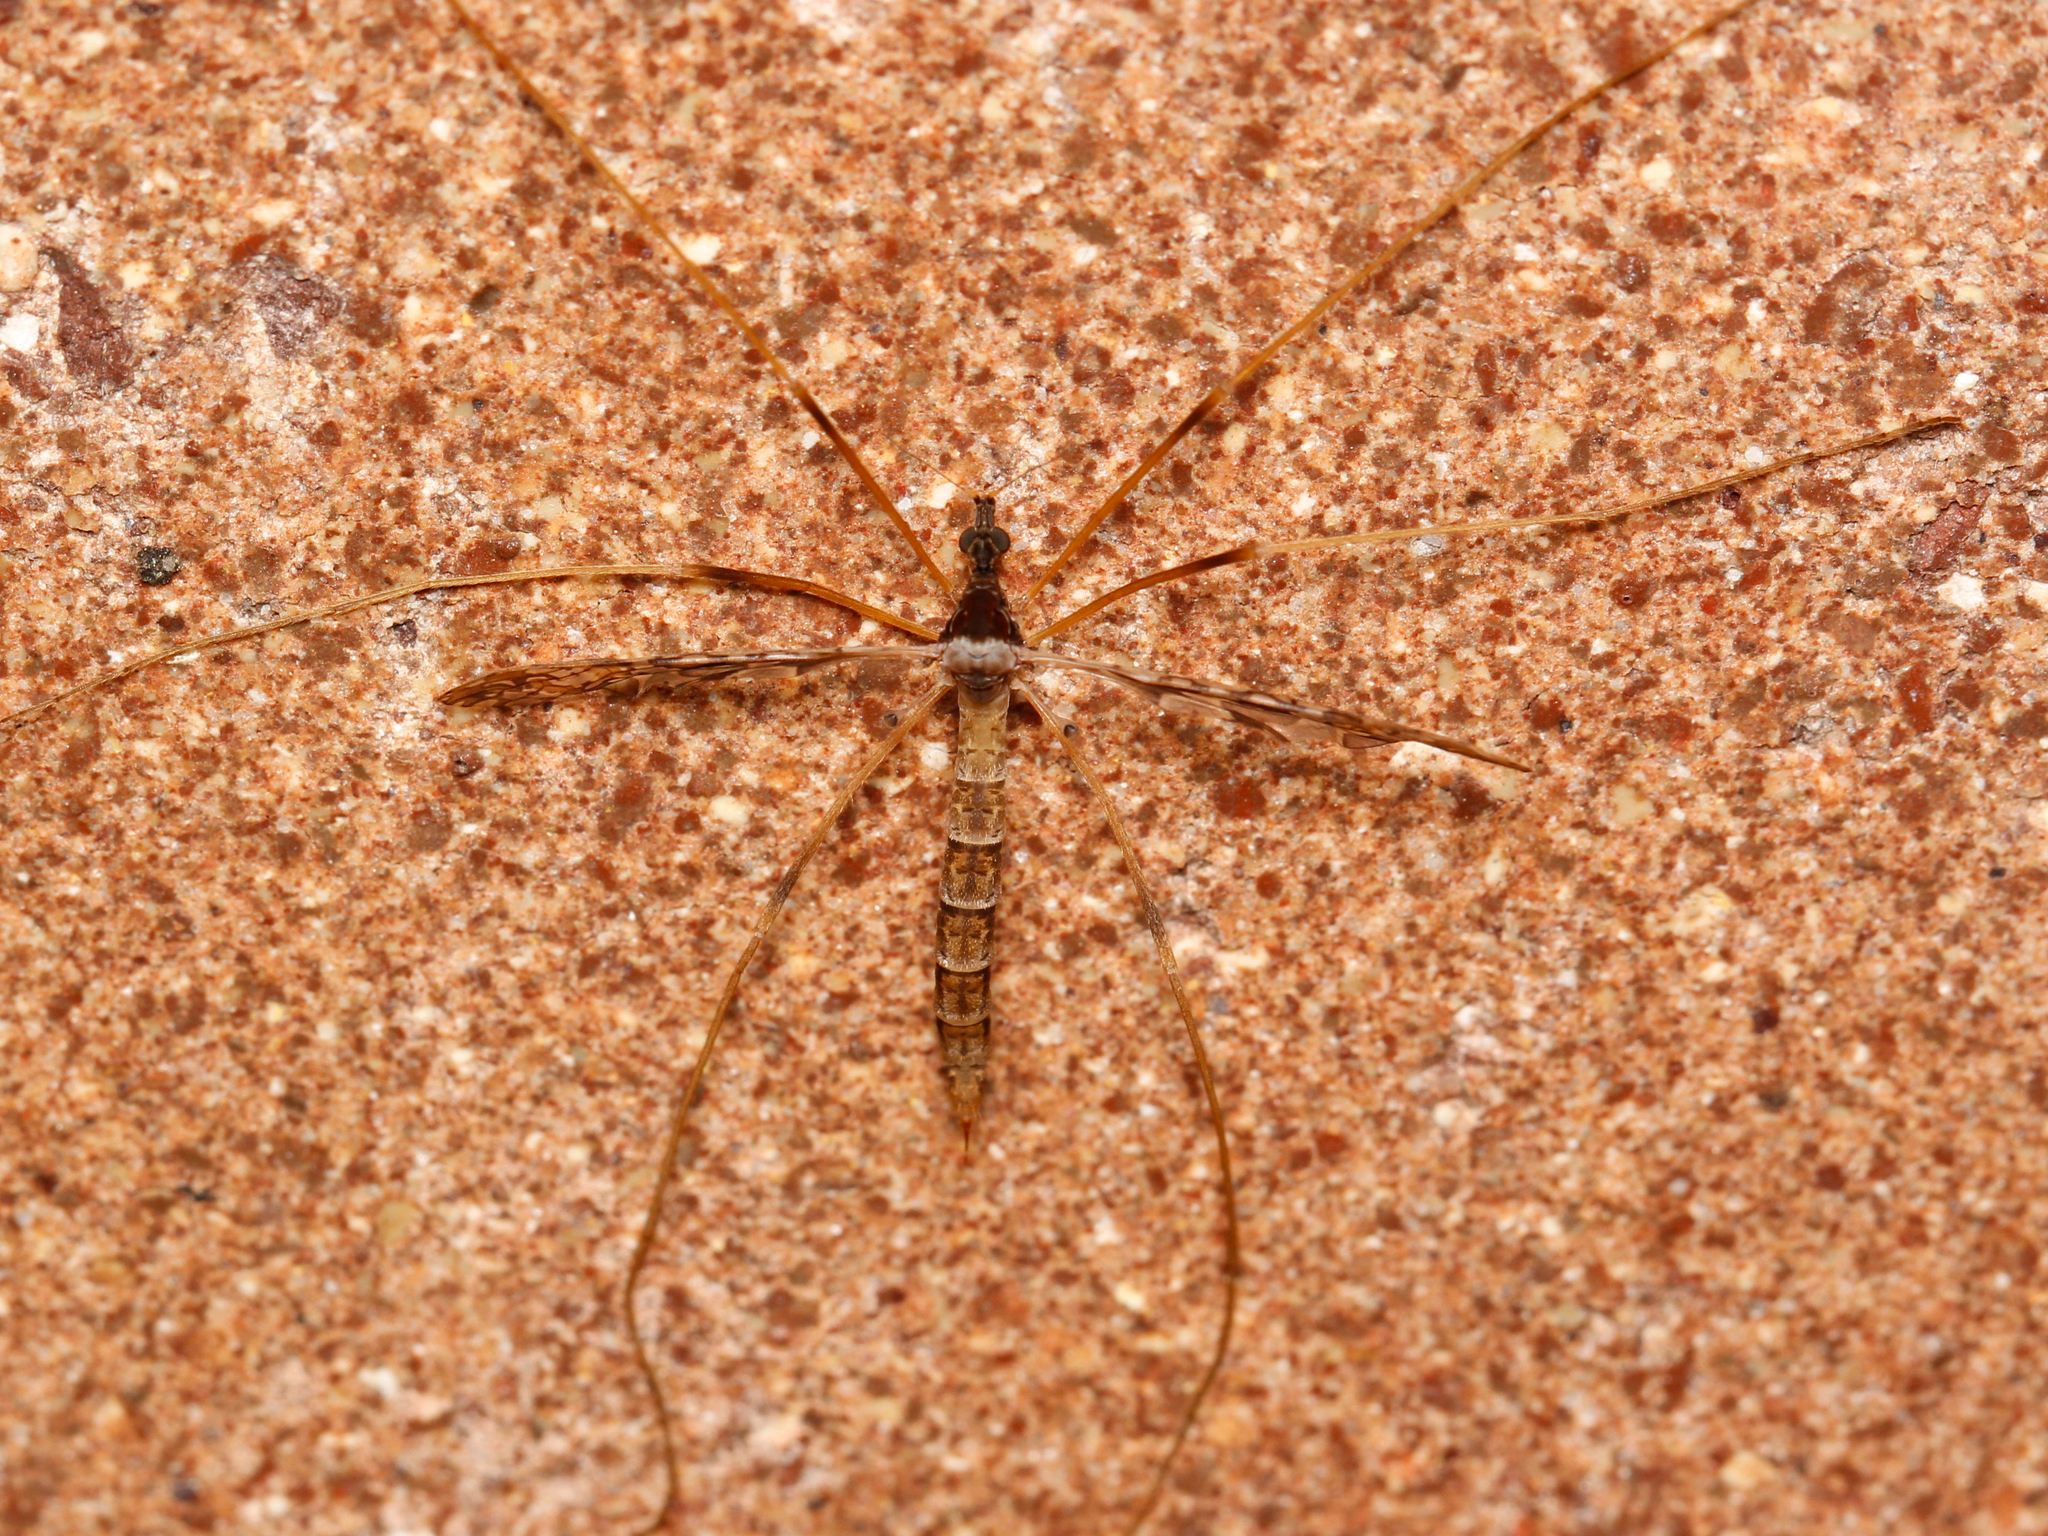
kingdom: Animalia
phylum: Arthropoda
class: Insecta
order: Diptera
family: Limoniidae
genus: Epiphragma
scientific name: Epiphragma solatrix
